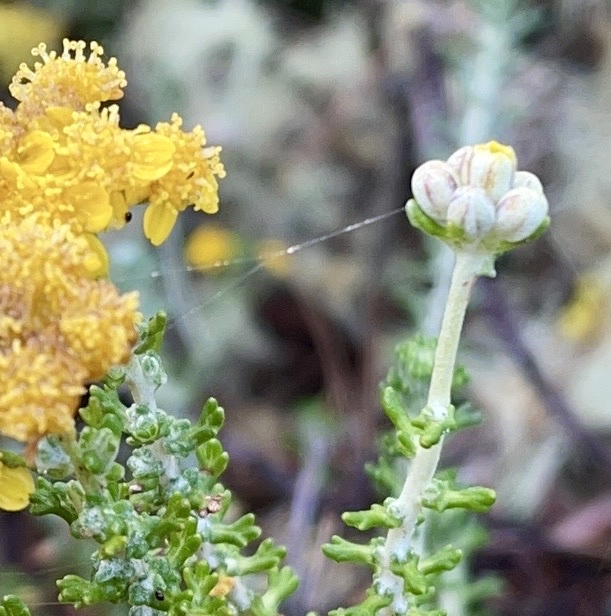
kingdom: Plantae
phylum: Tracheophyta
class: Magnoliopsida
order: Asterales
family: Asteraceae
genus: Eriophyllum
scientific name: Eriophyllum confertiflorum
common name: Golden-yarrow
